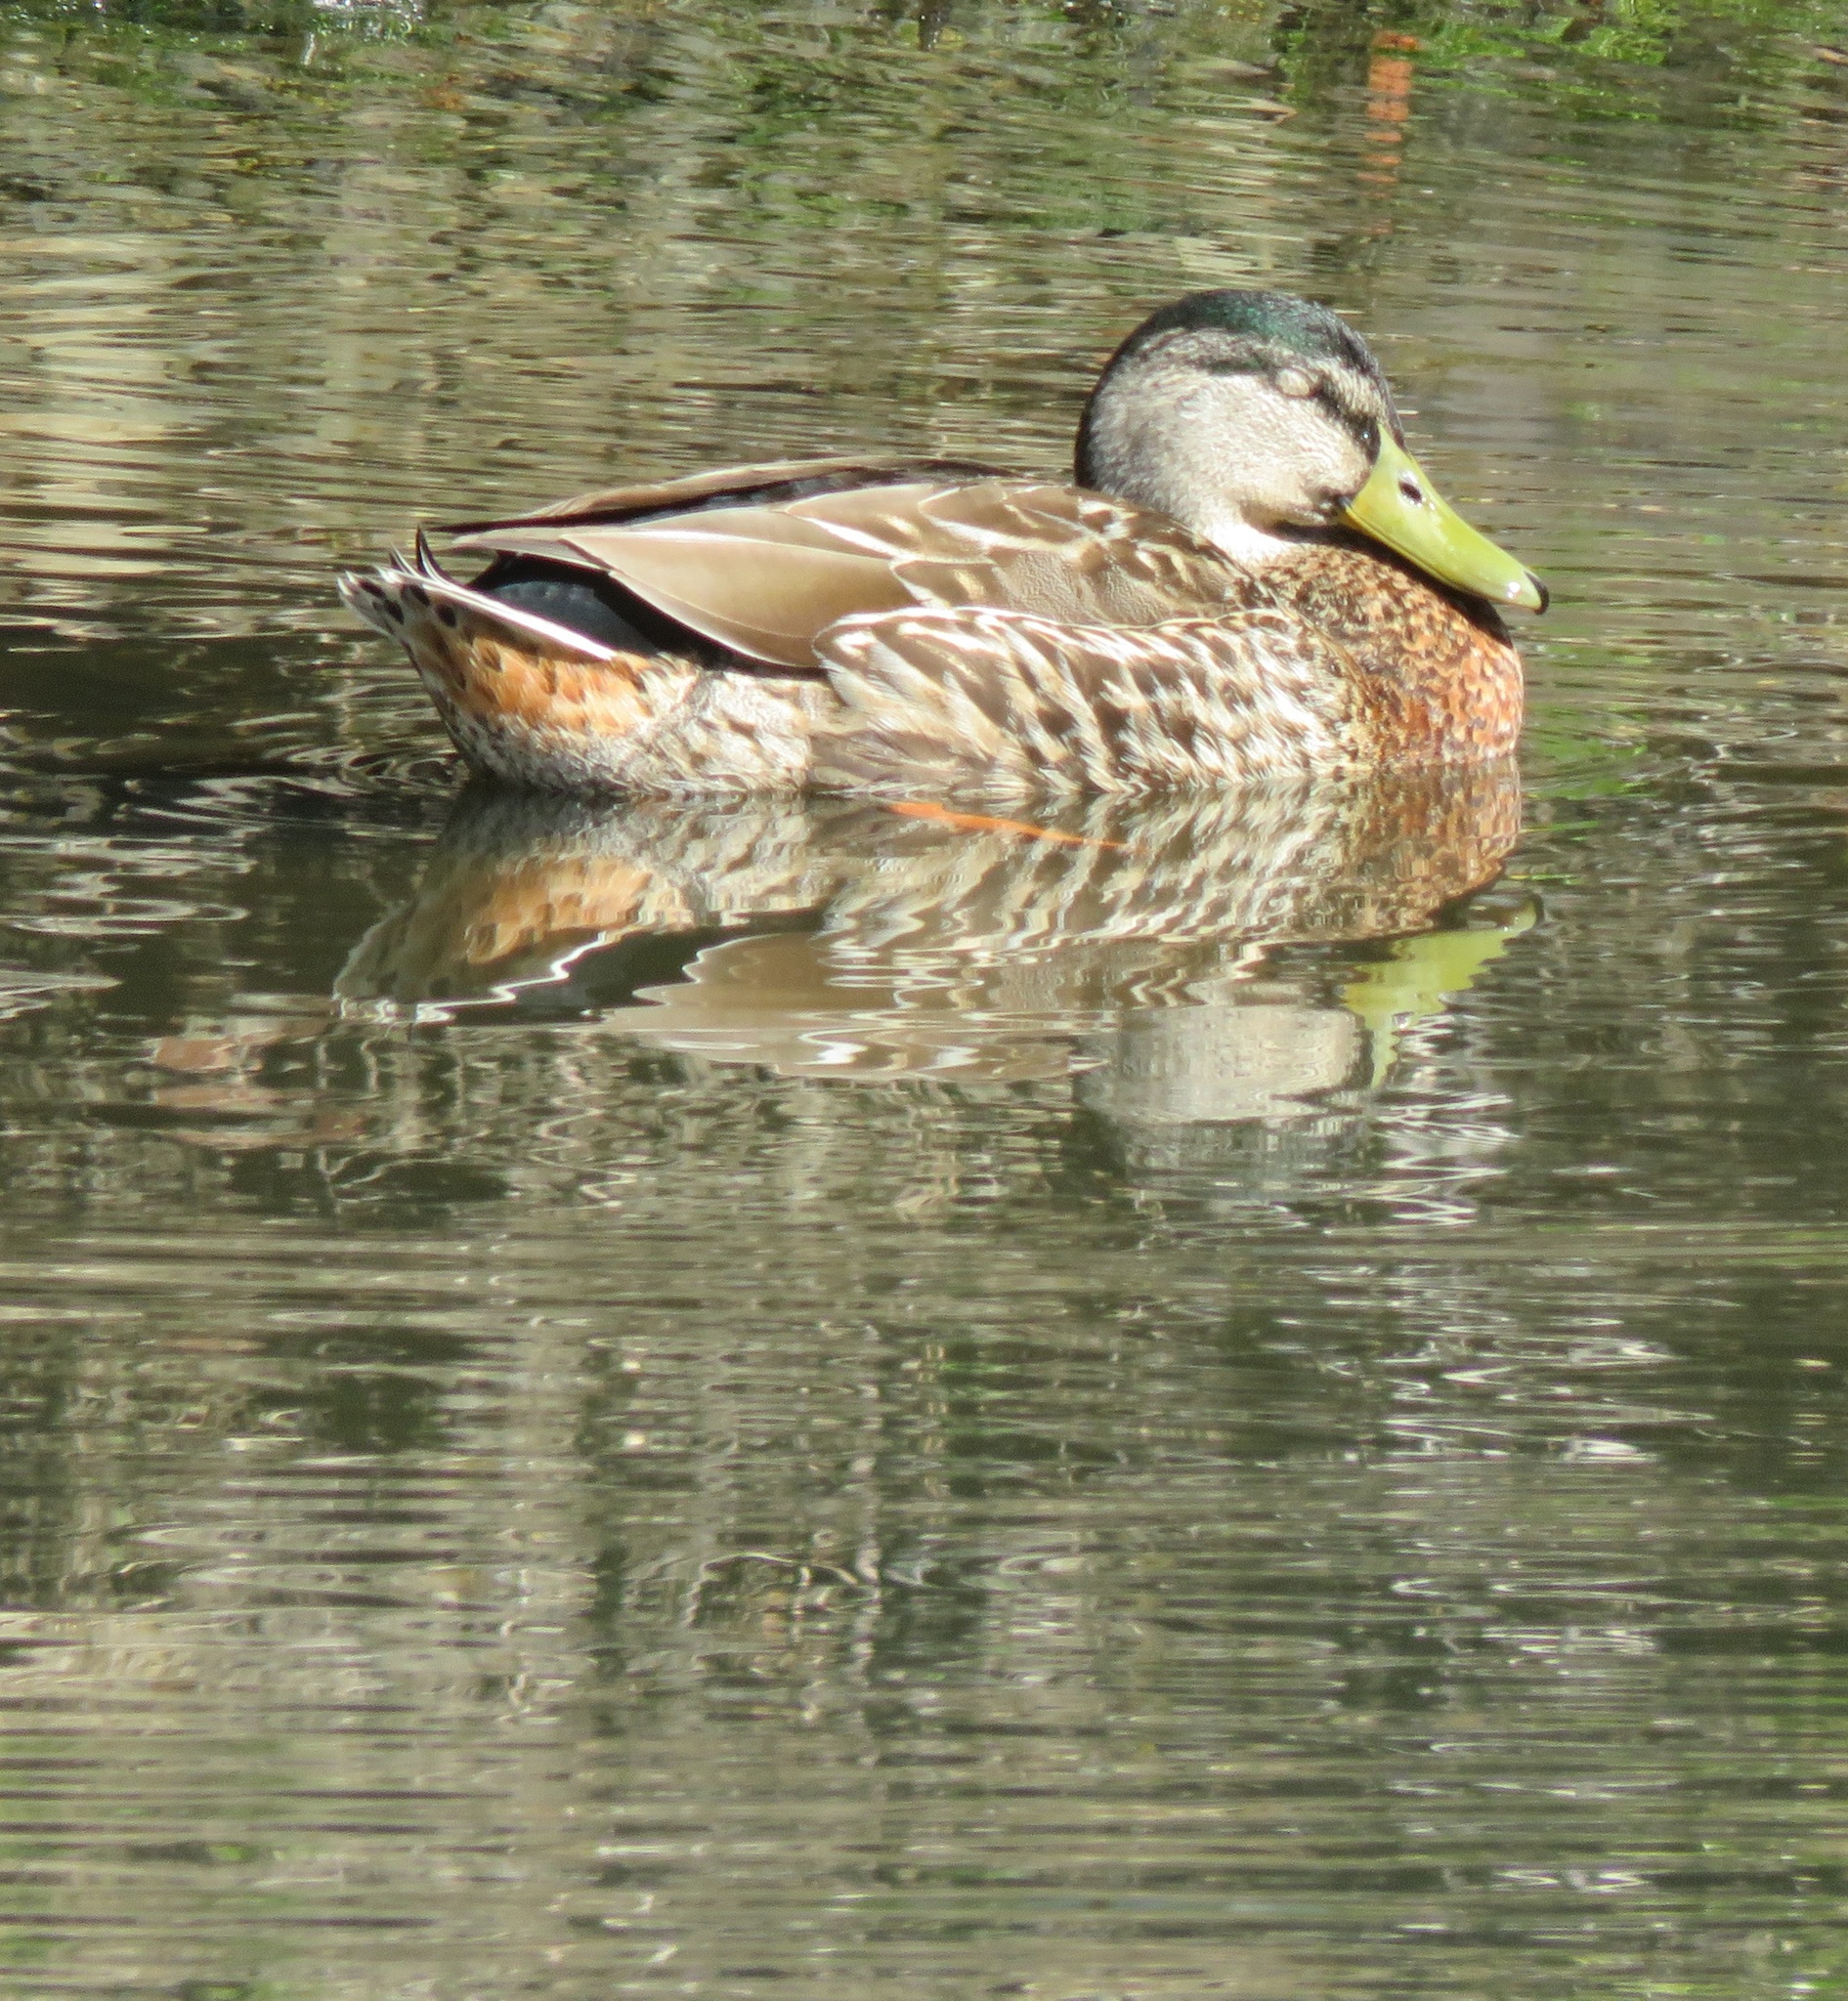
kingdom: Animalia
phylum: Chordata
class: Aves
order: Anseriformes
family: Anatidae
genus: Anas
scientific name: Anas platyrhynchos
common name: Mallard
